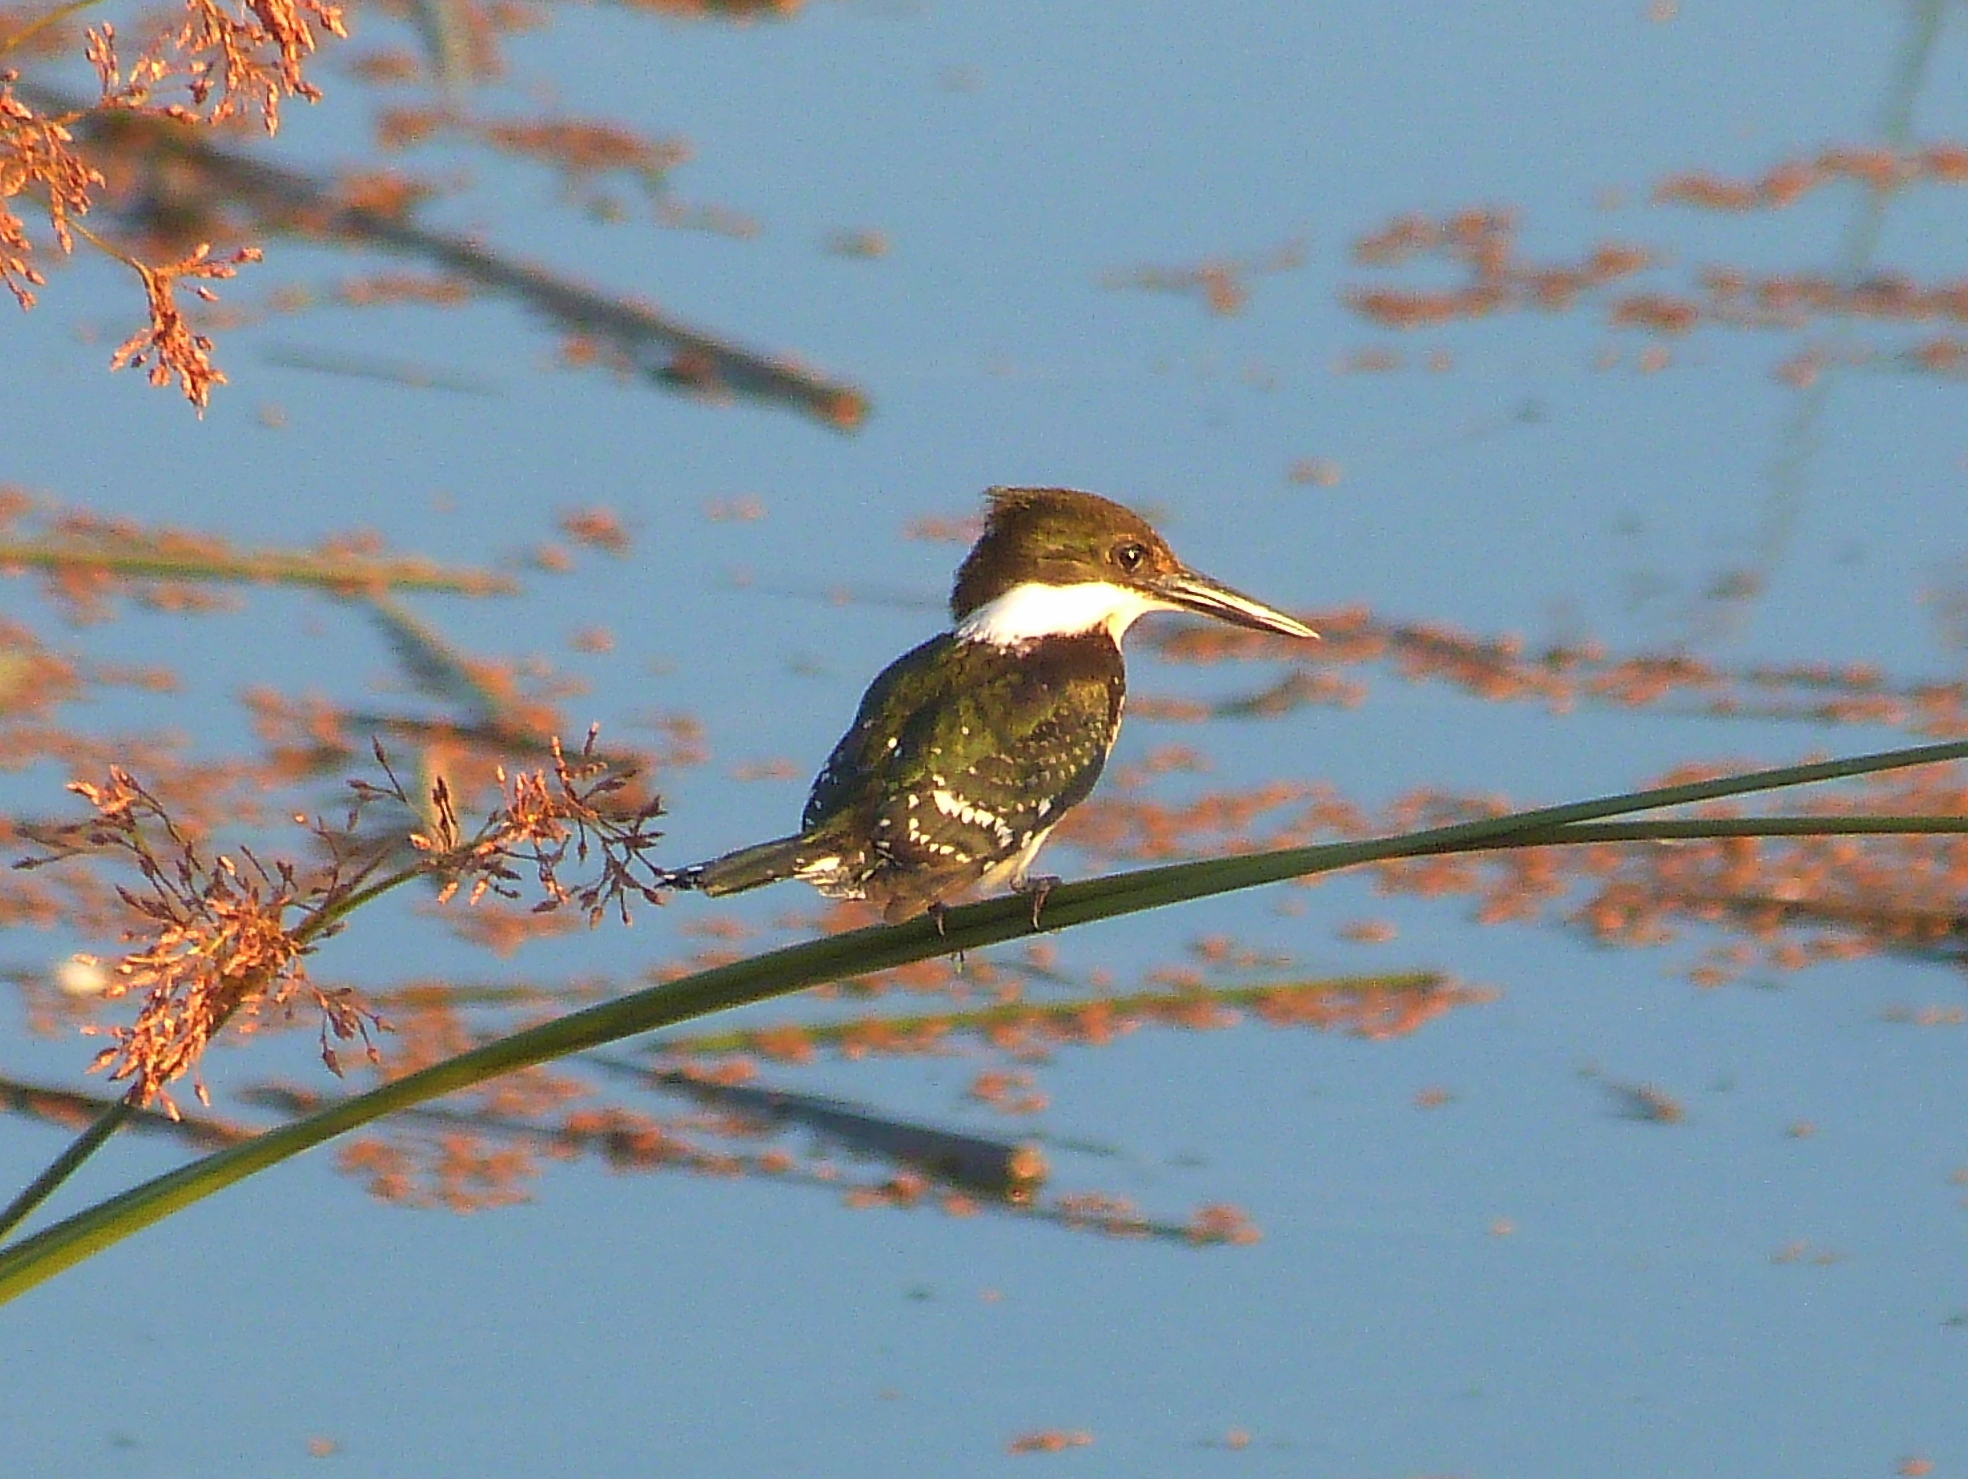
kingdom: Animalia
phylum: Chordata
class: Aves
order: Coraciiformes
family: Alcedinidae
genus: Chloroceryle
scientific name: Chloroceryle americana
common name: Green kingfisher
